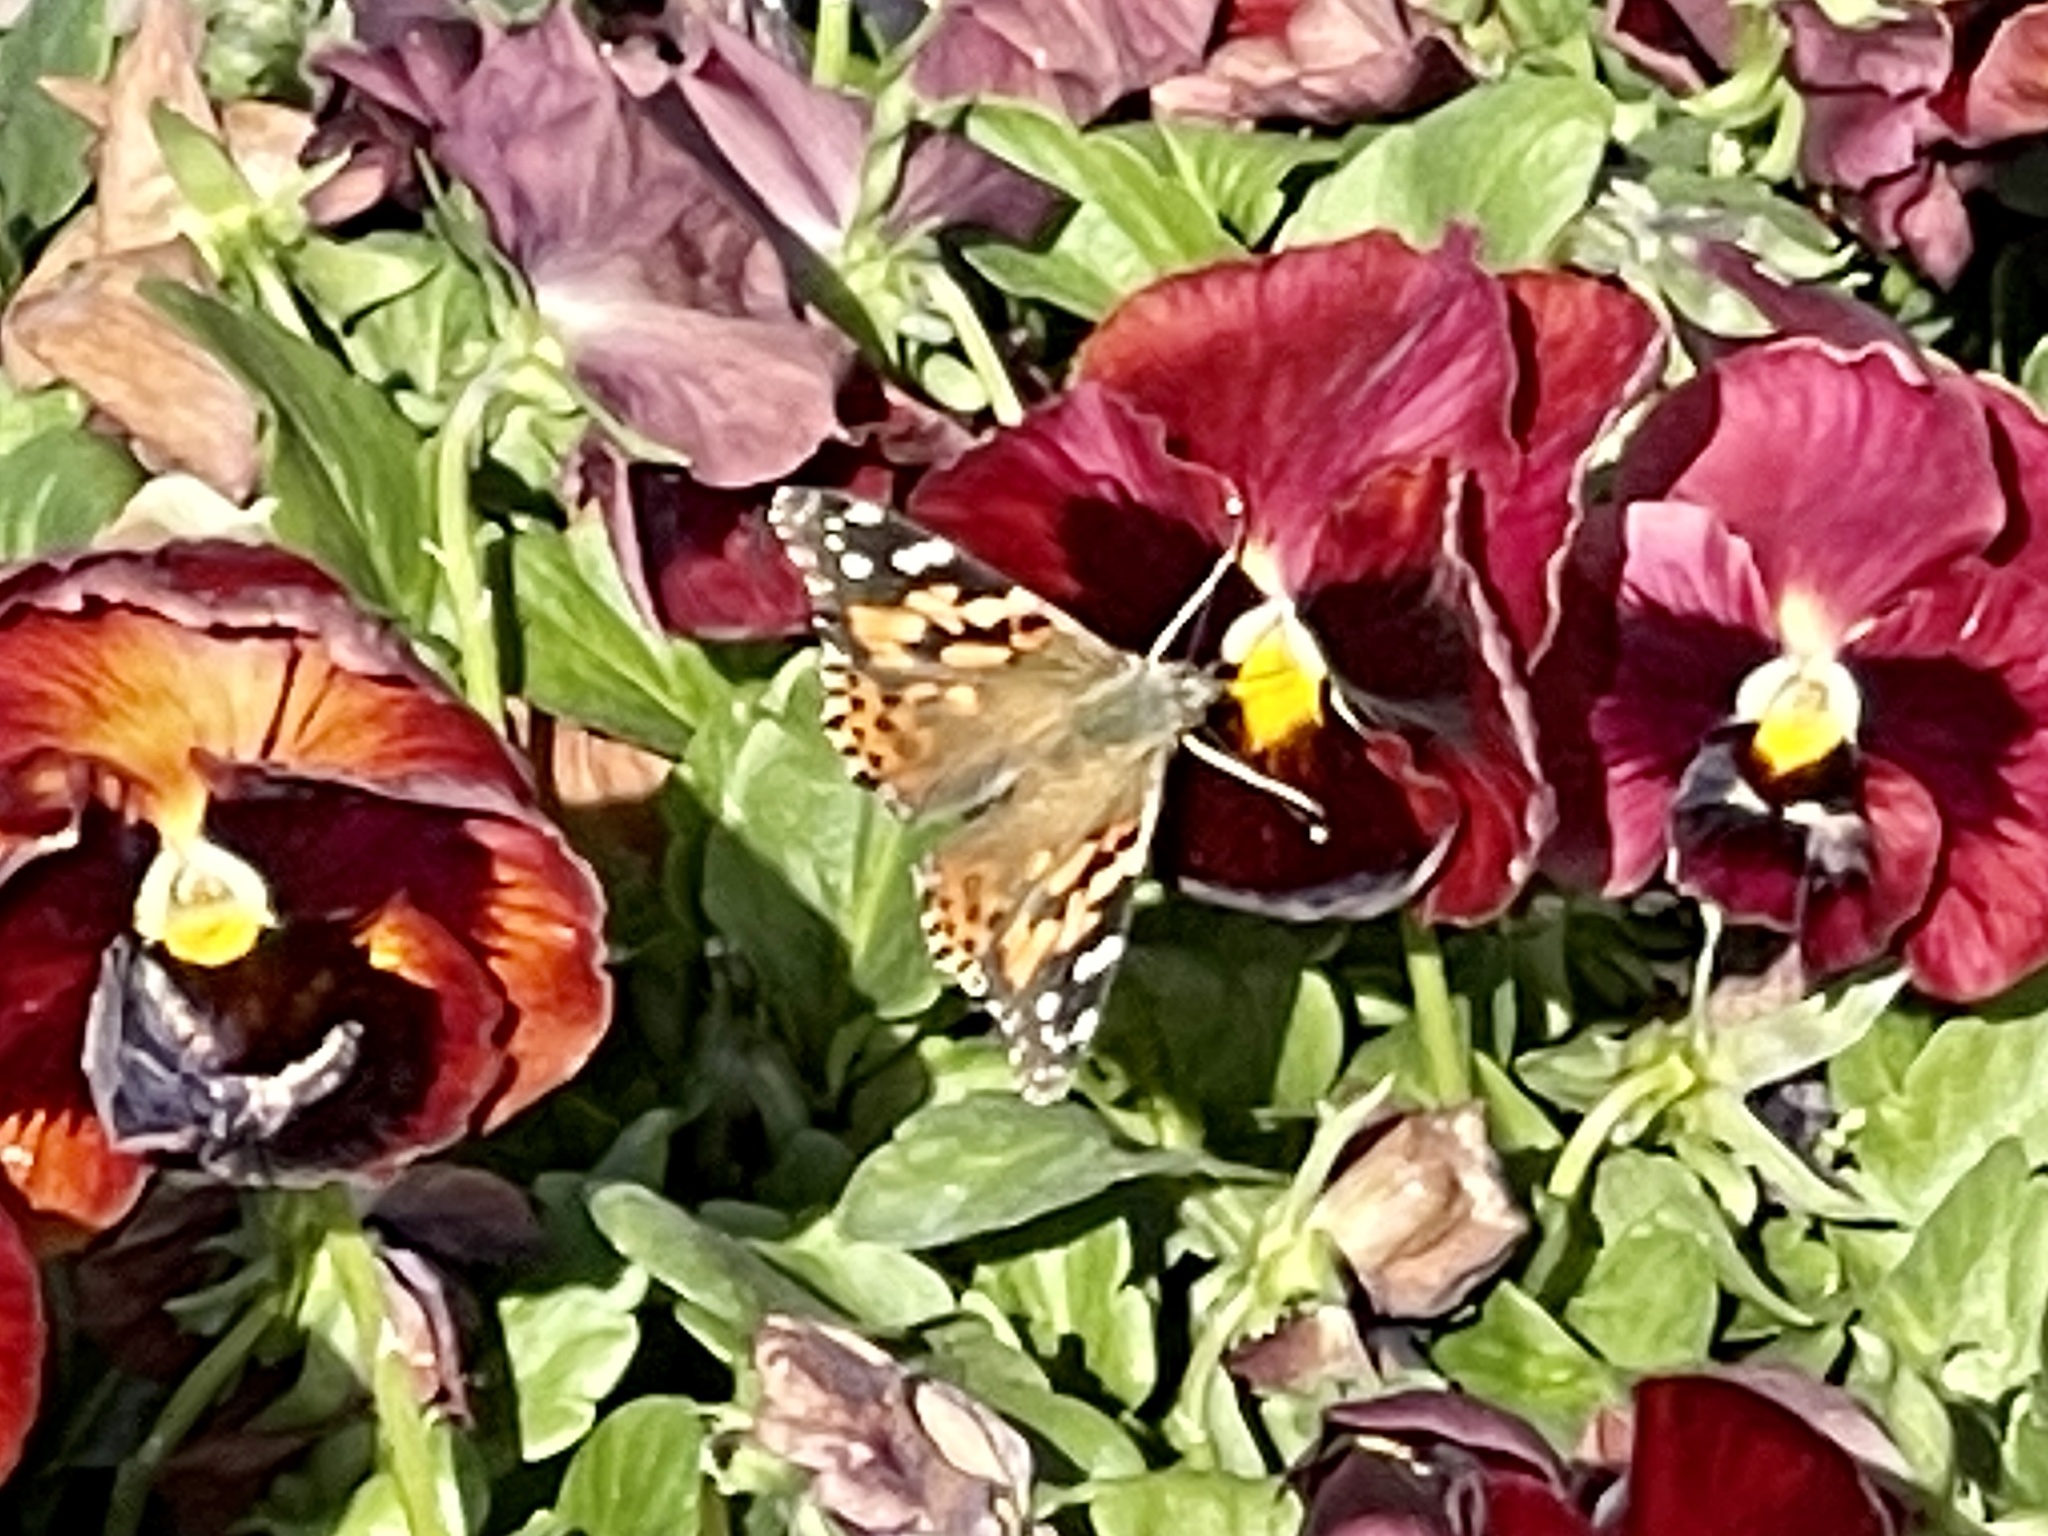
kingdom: Animalia
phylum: Arthropoda
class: Insecta
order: Lepidoptera
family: Nymphalidae
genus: Vanessa
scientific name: Vanessa cardui
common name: Painted lady
